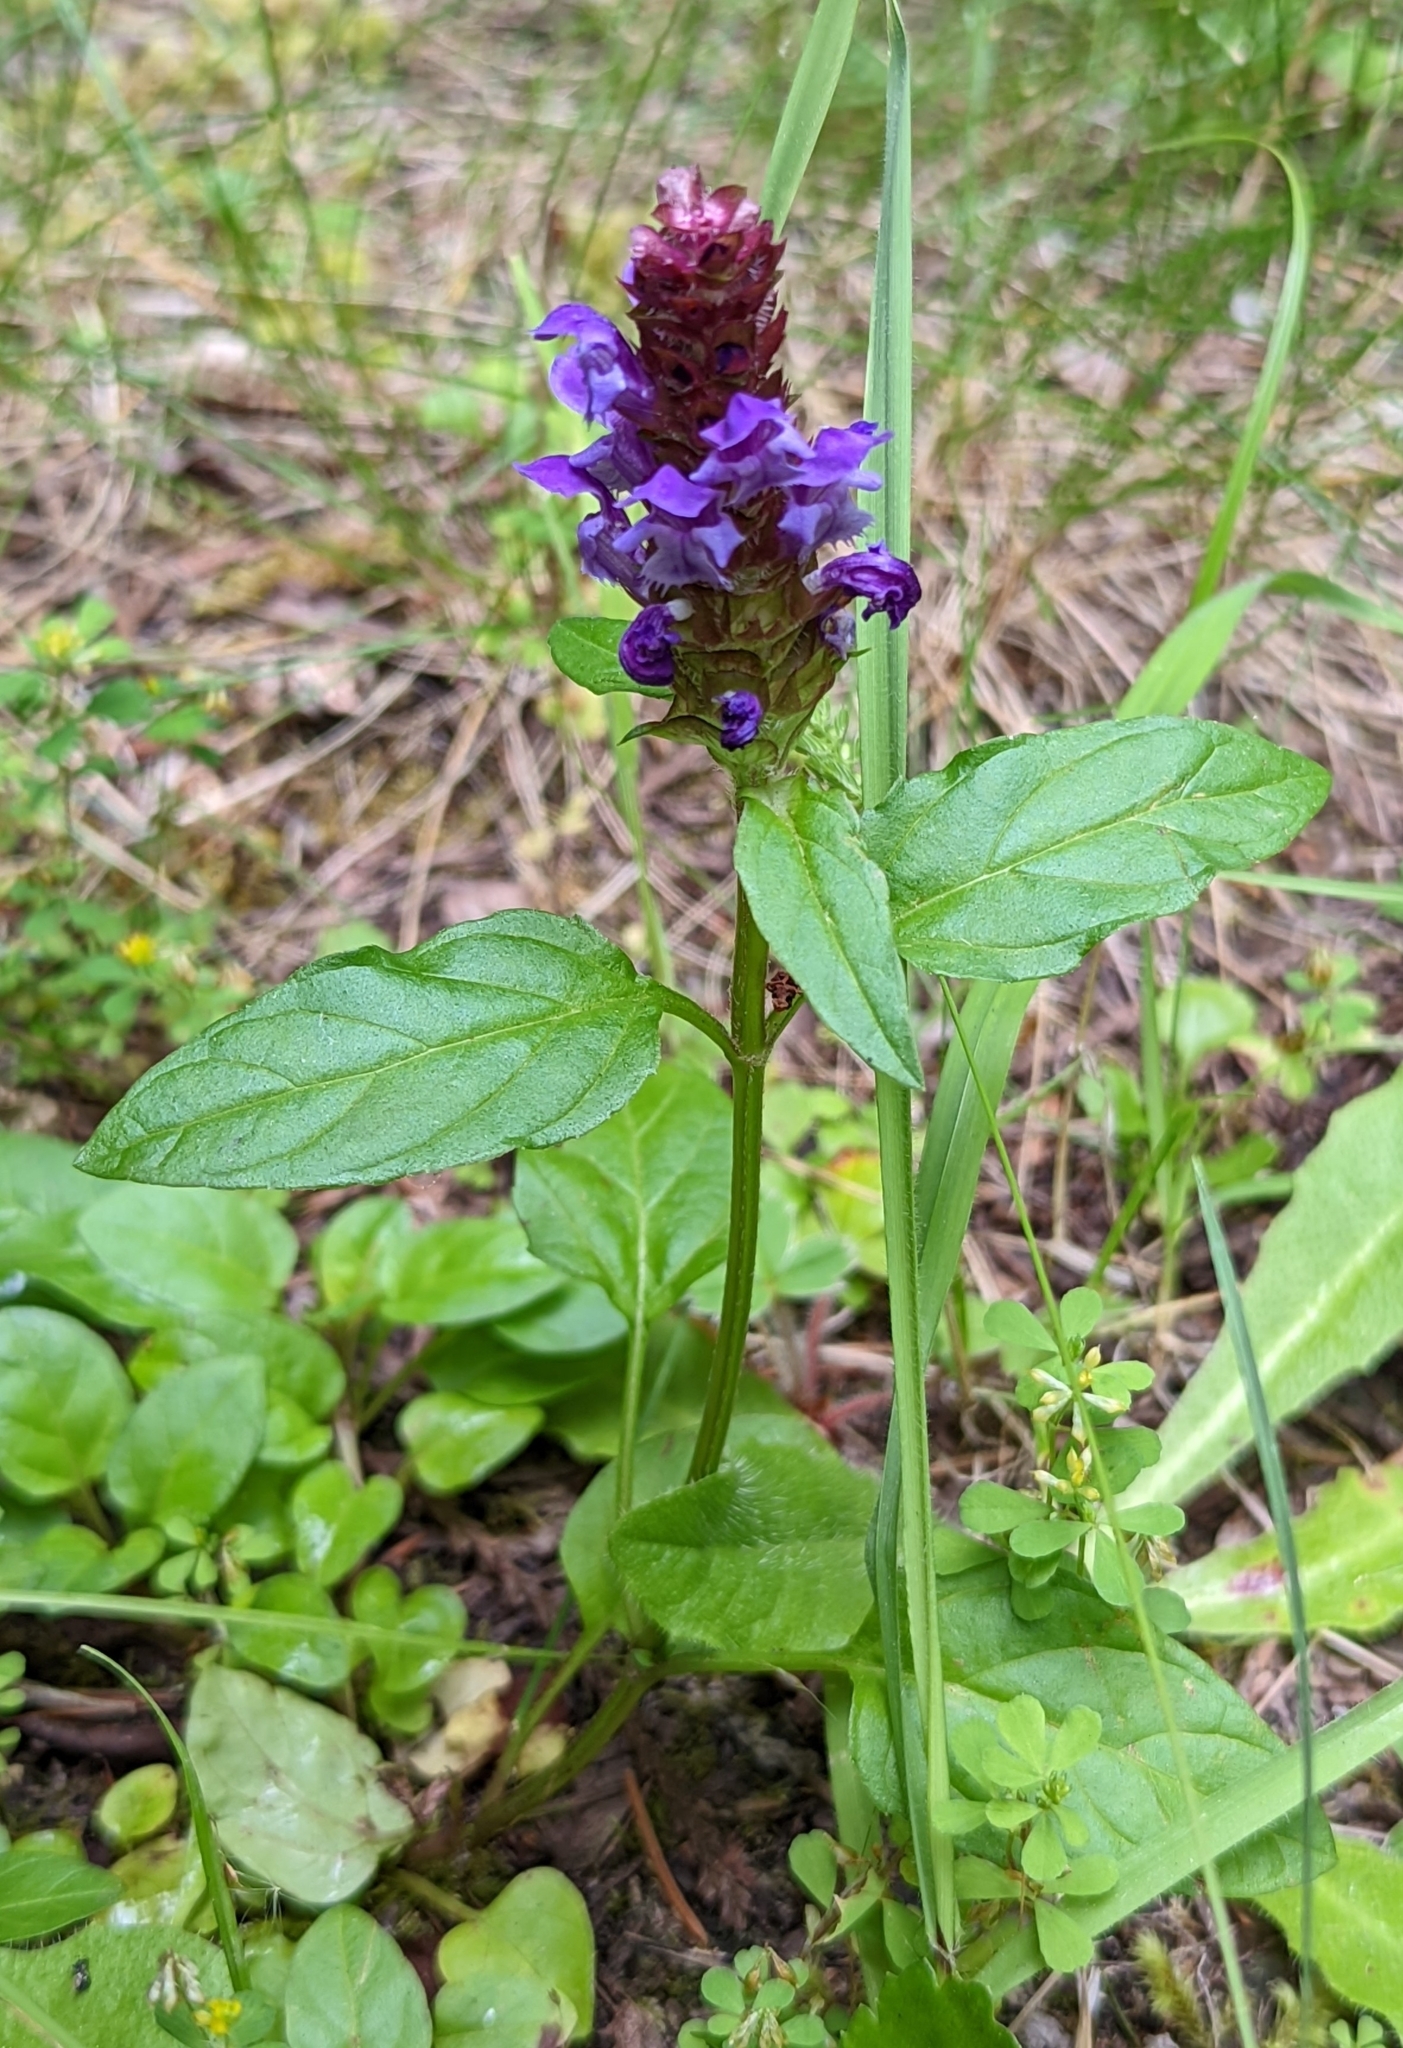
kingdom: Plantae
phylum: Tracheophyta
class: Magnoliopsida
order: Lamiales
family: Lamiaceae
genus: Prunella
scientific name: Prunella vulgaris
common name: Heal-all
